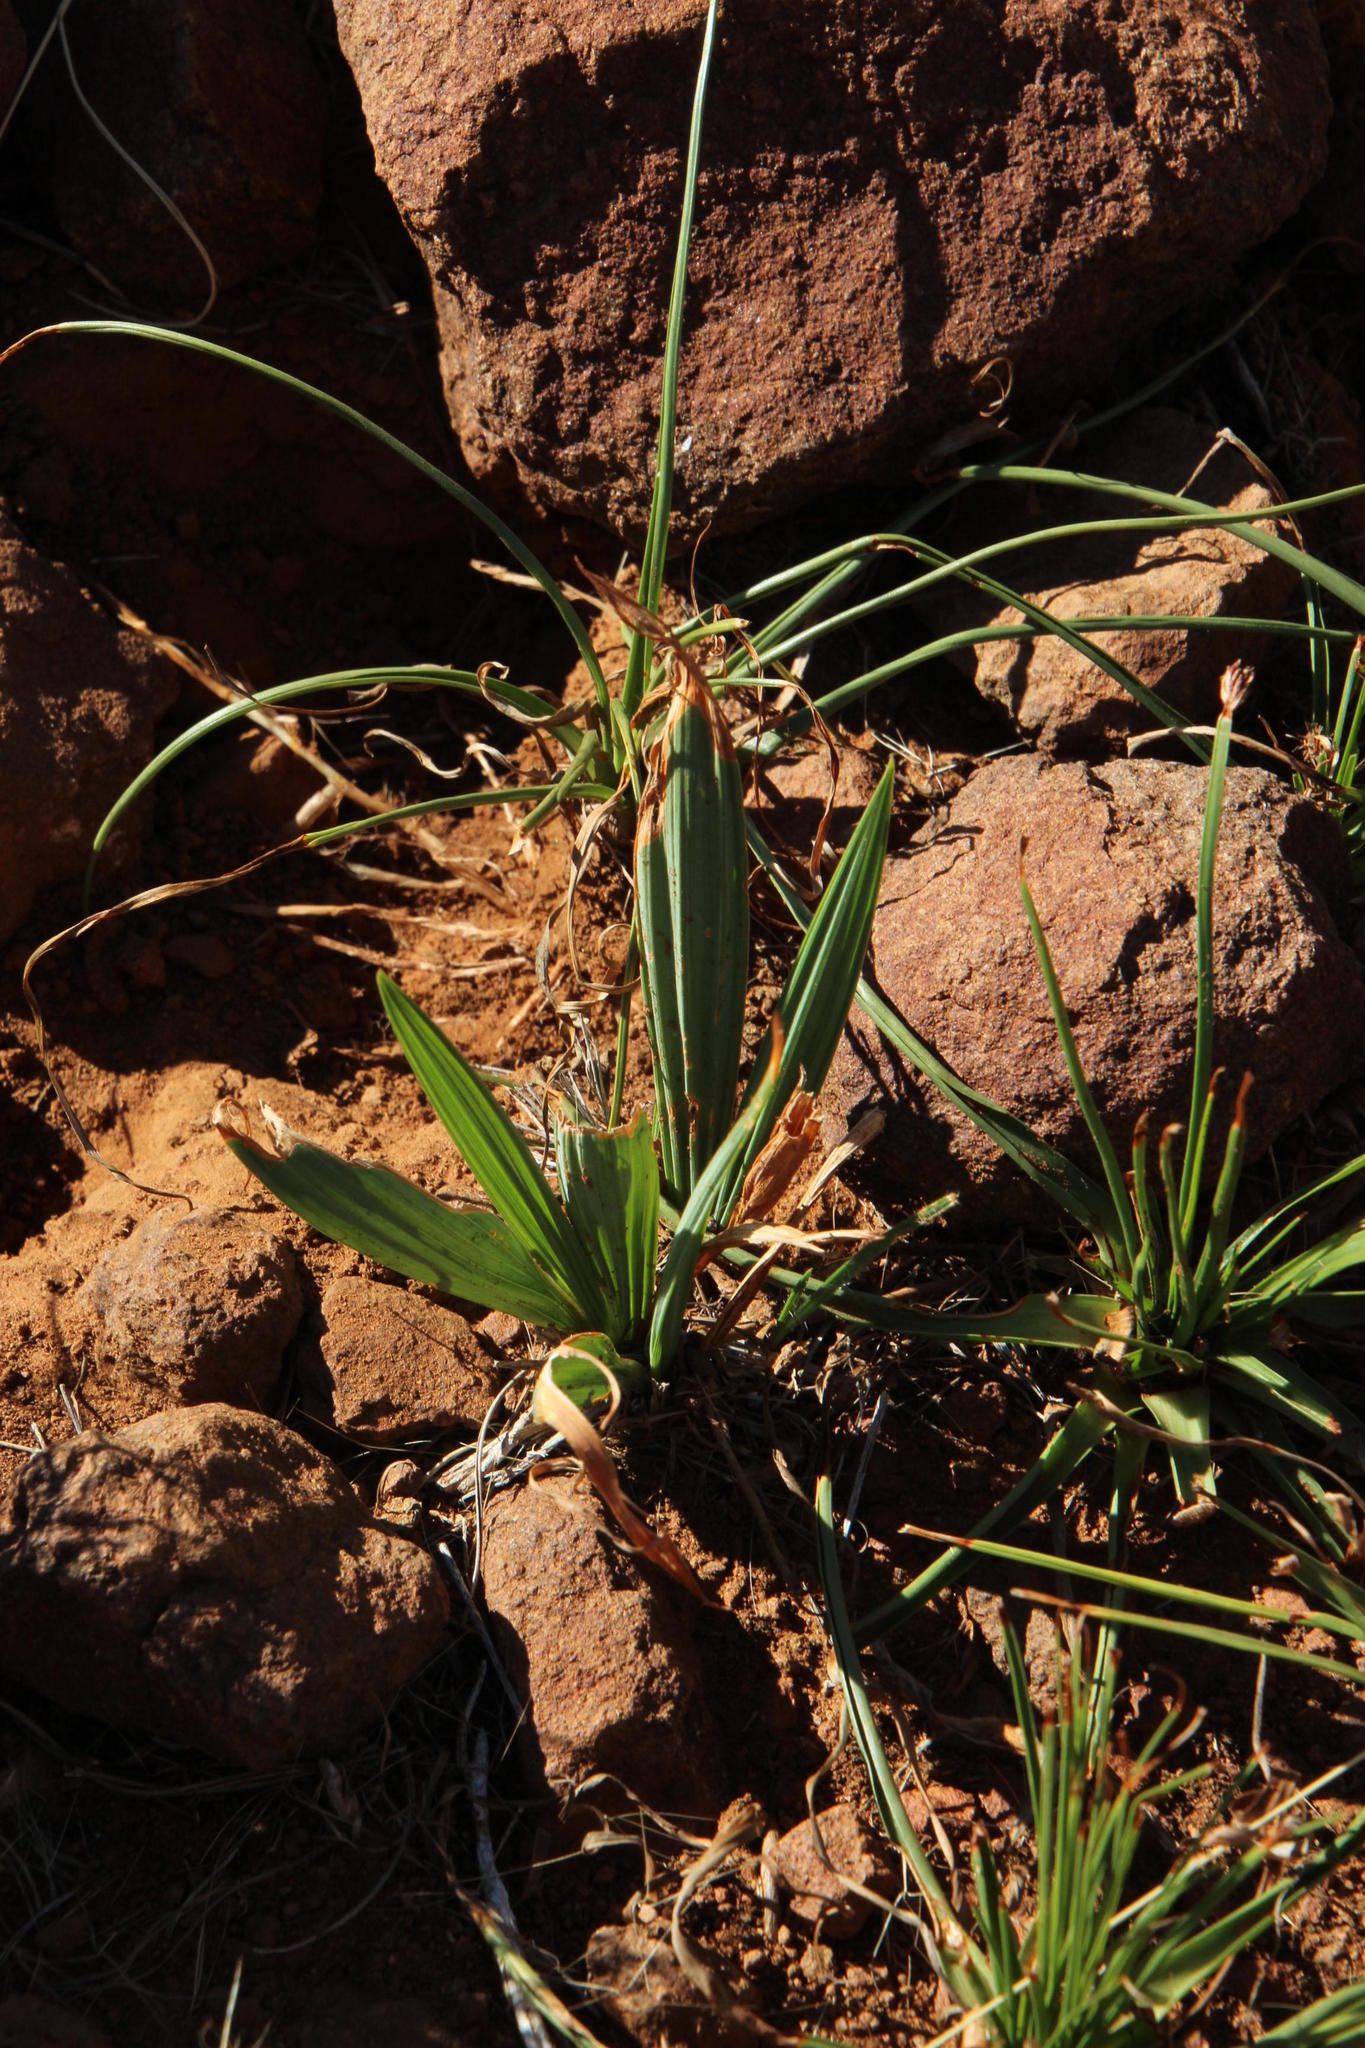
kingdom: Plantae
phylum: Tracheophyta
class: Liliopsida
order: Asparagales
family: Iridaceae
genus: Babiana
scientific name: Babiana hypogaea
